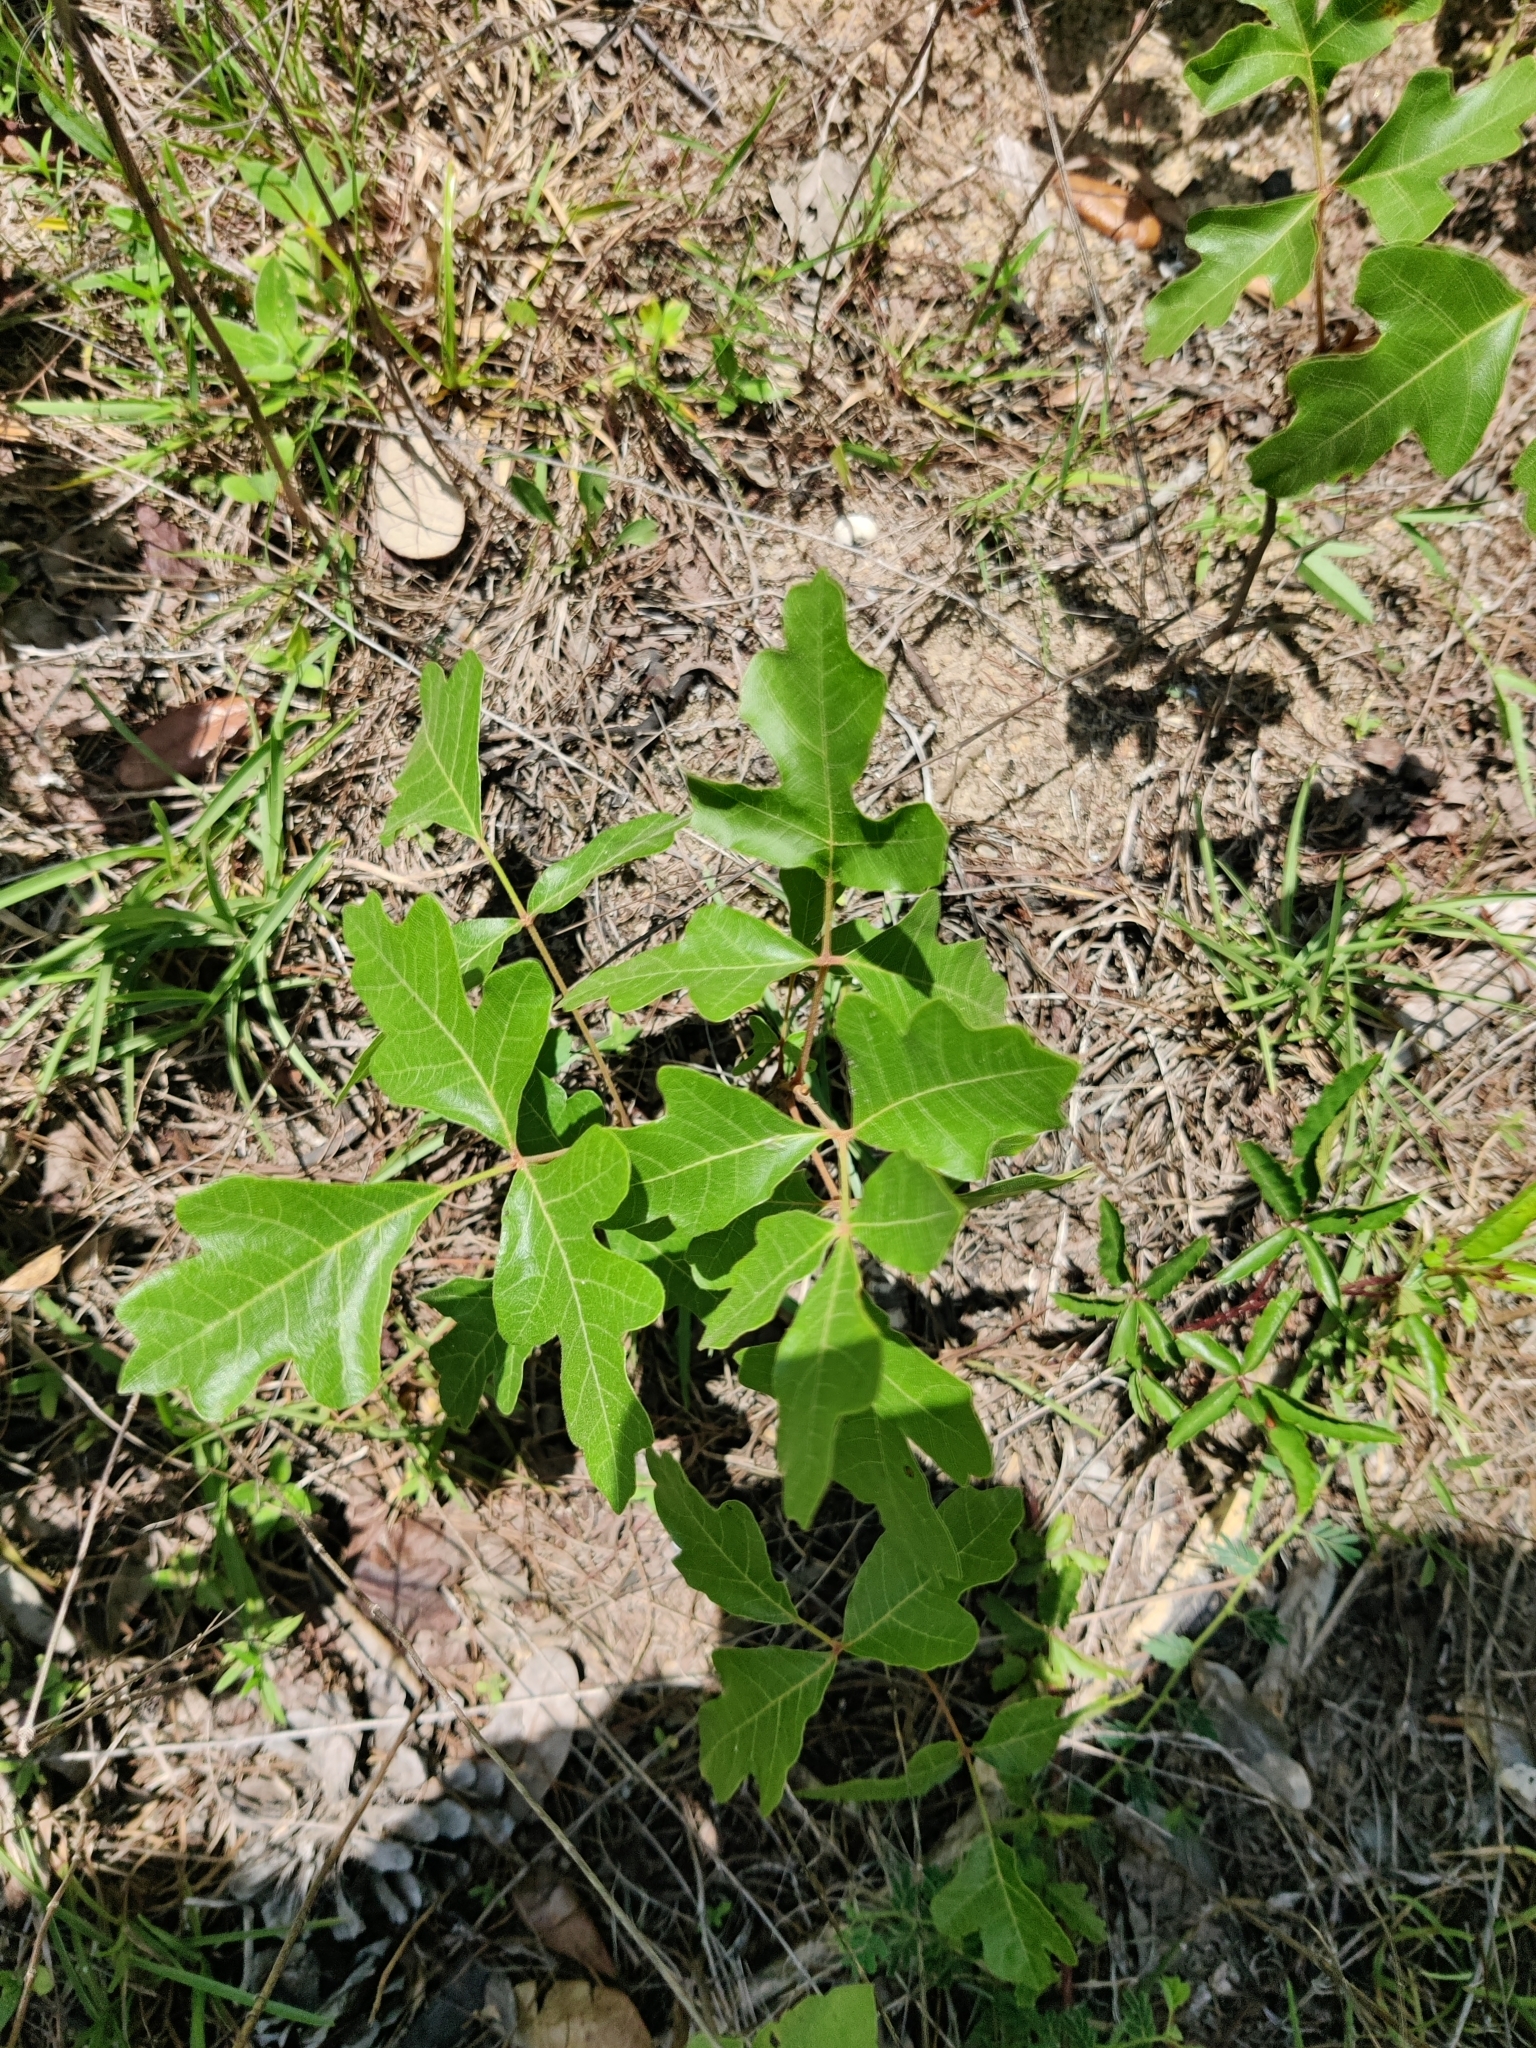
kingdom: Plantae
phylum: Tracheophyta
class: Magnoliopsida
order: Sapindales
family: Anacardiaceae
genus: Toxicodendron
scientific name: Toxicodendron pubescens
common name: Eastern poison-oak
